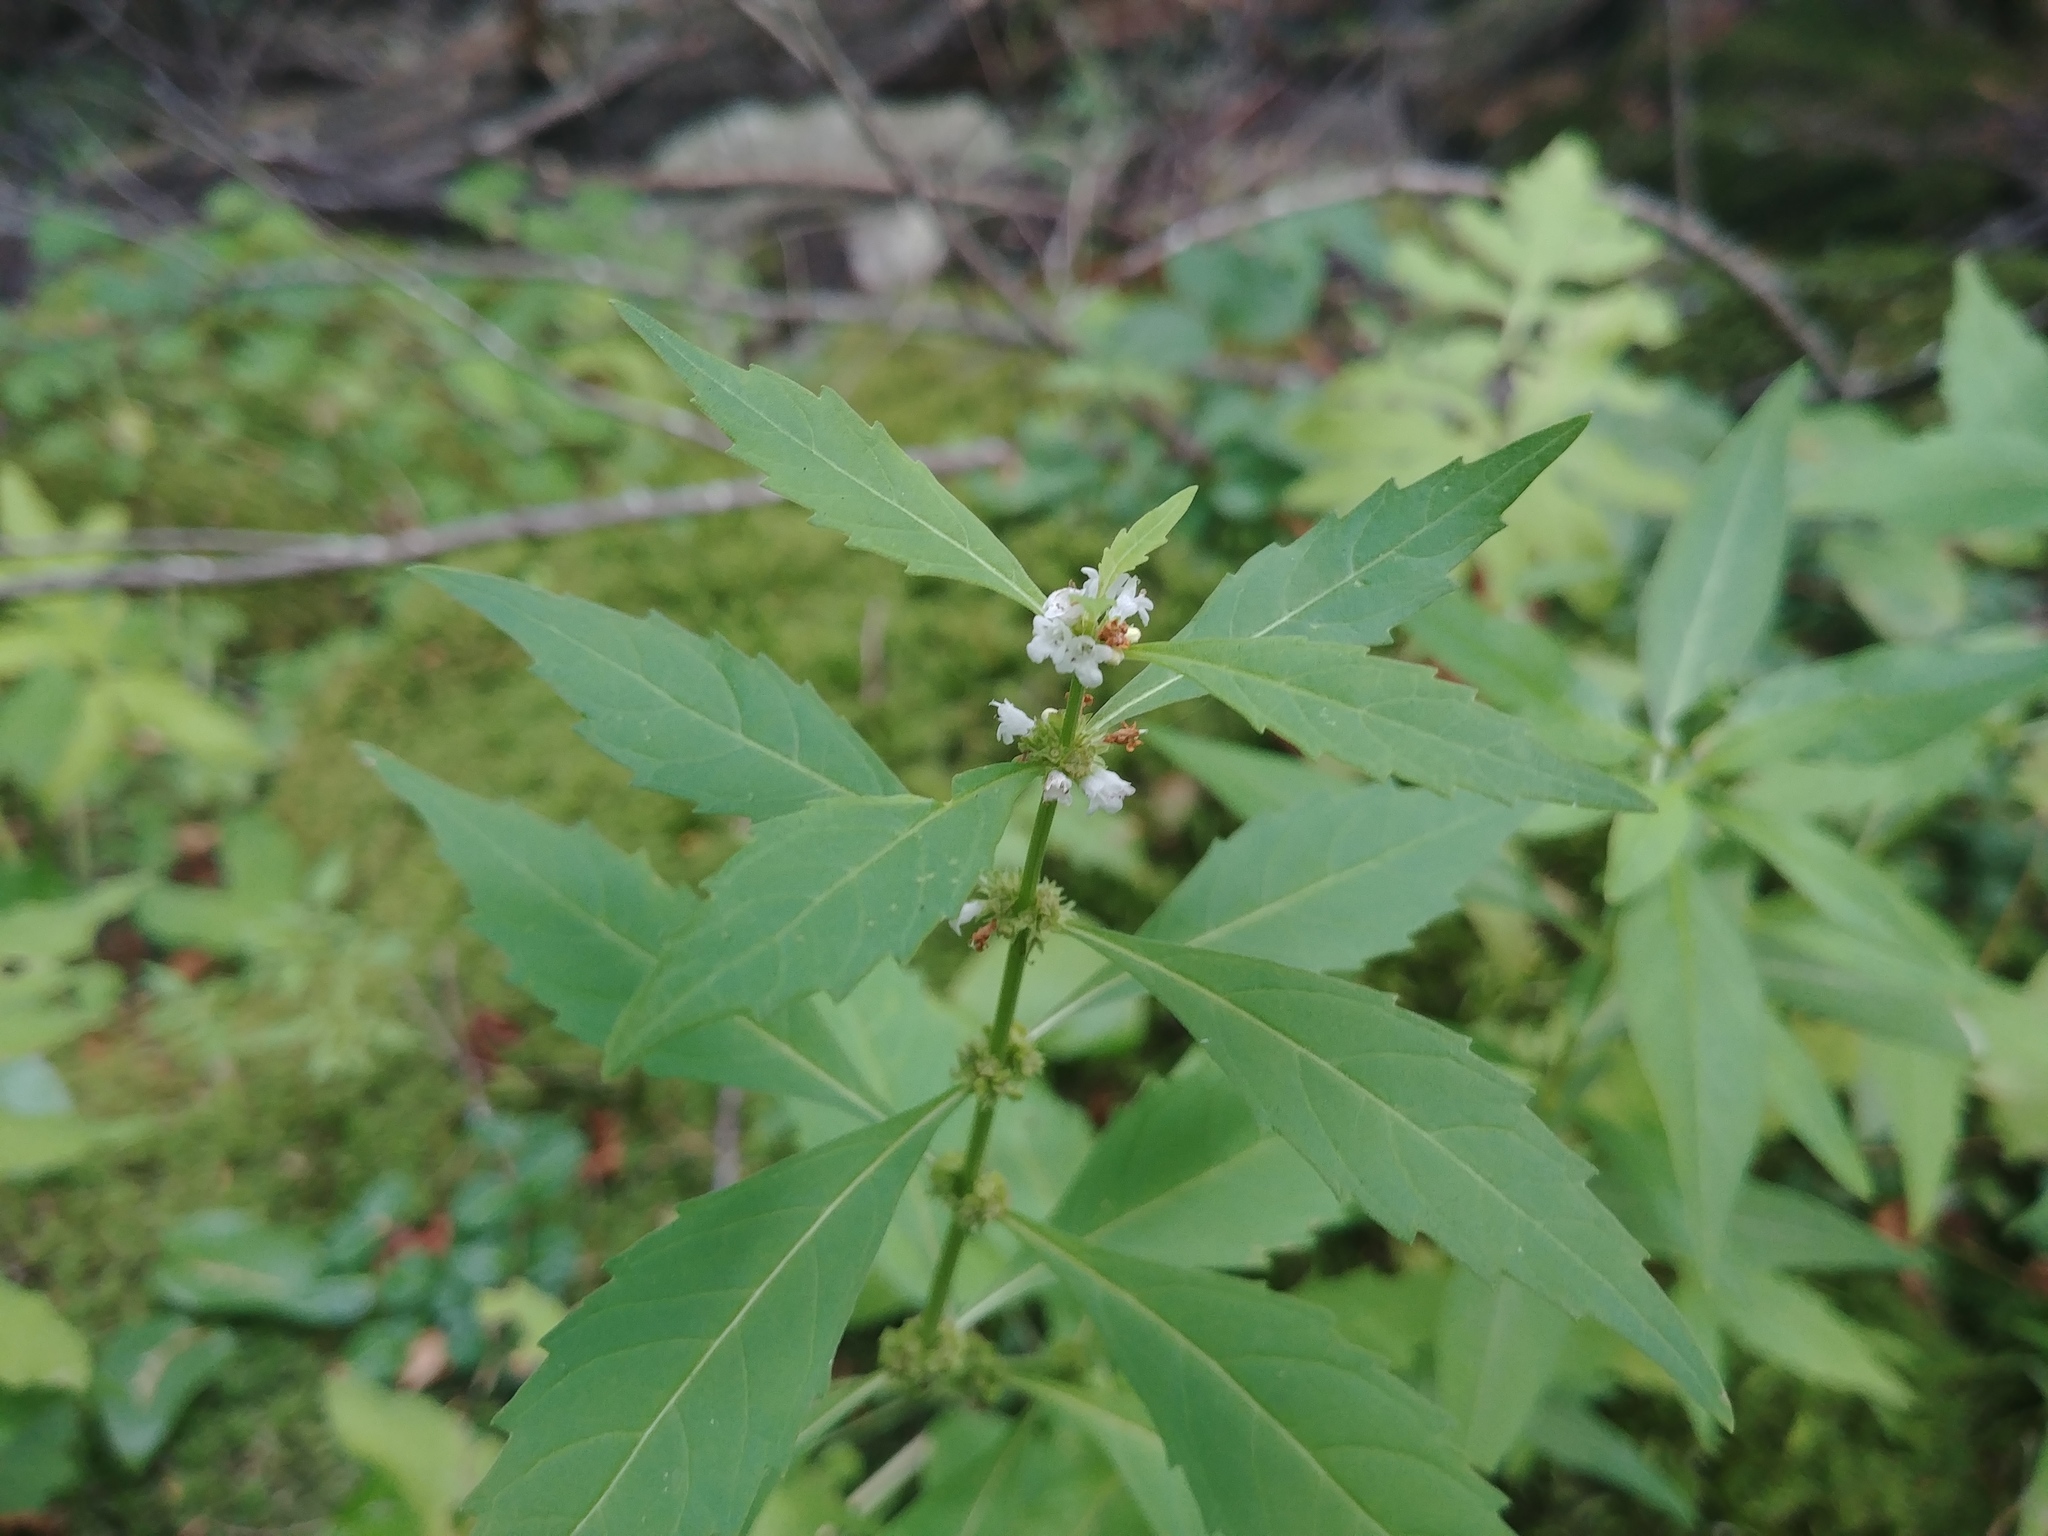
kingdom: Plantae
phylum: Tracheophyta
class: Magnoliopsida
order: Lamiales
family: Lamiaceae
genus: Lycopus
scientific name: Lycopus uniflorus
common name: Northern bugleweed
